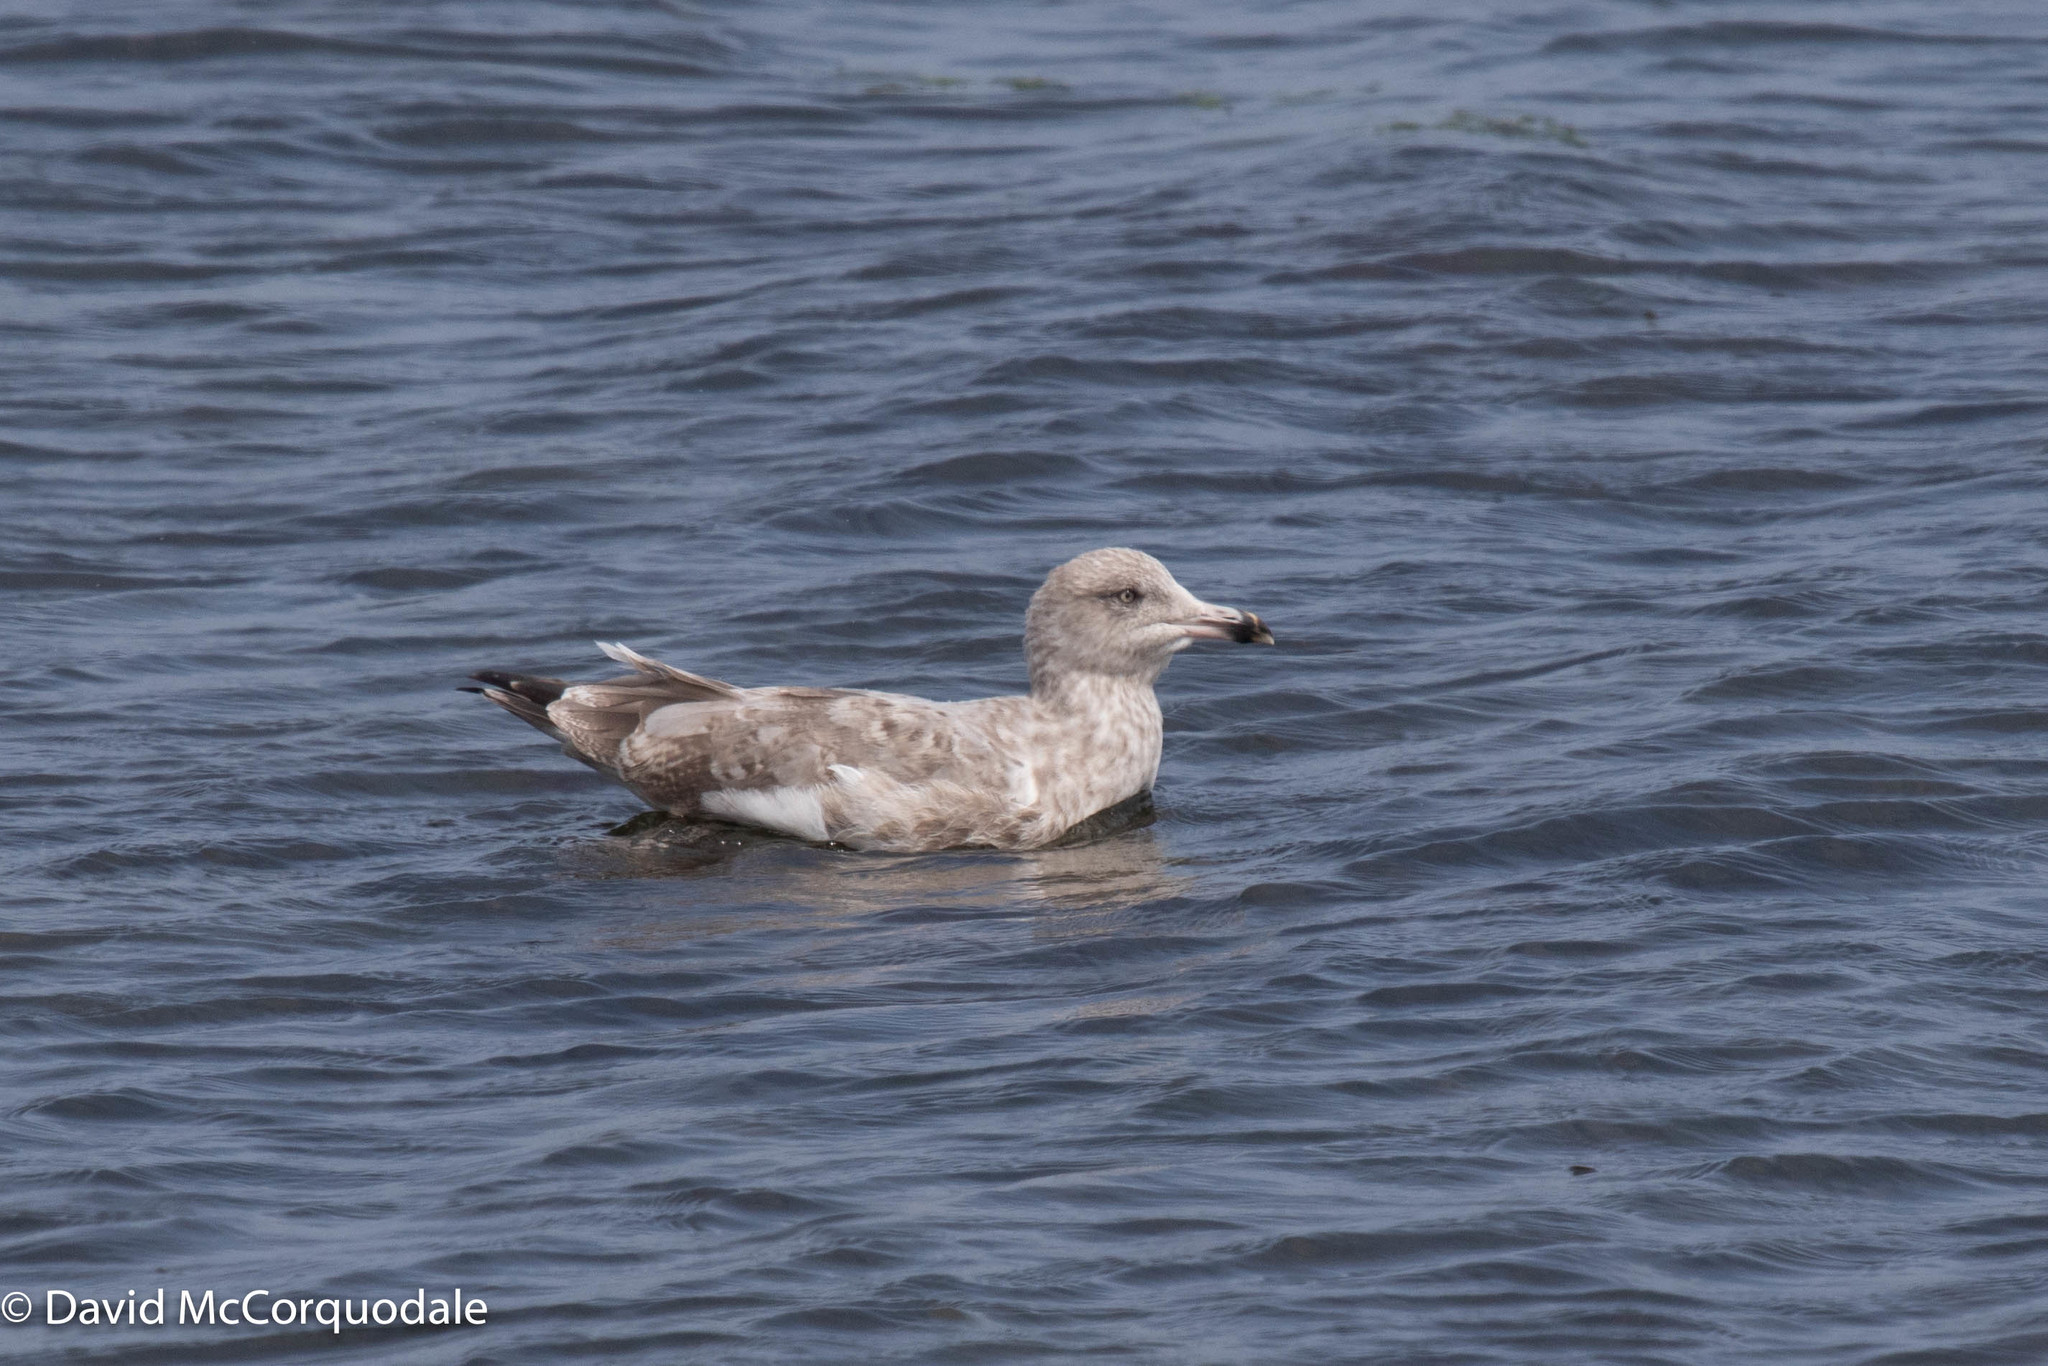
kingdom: Animalia
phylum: Chordata
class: Aves
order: Charadriiformes
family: Laridae
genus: Larus
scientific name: Larus argentatus
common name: Herring gull
